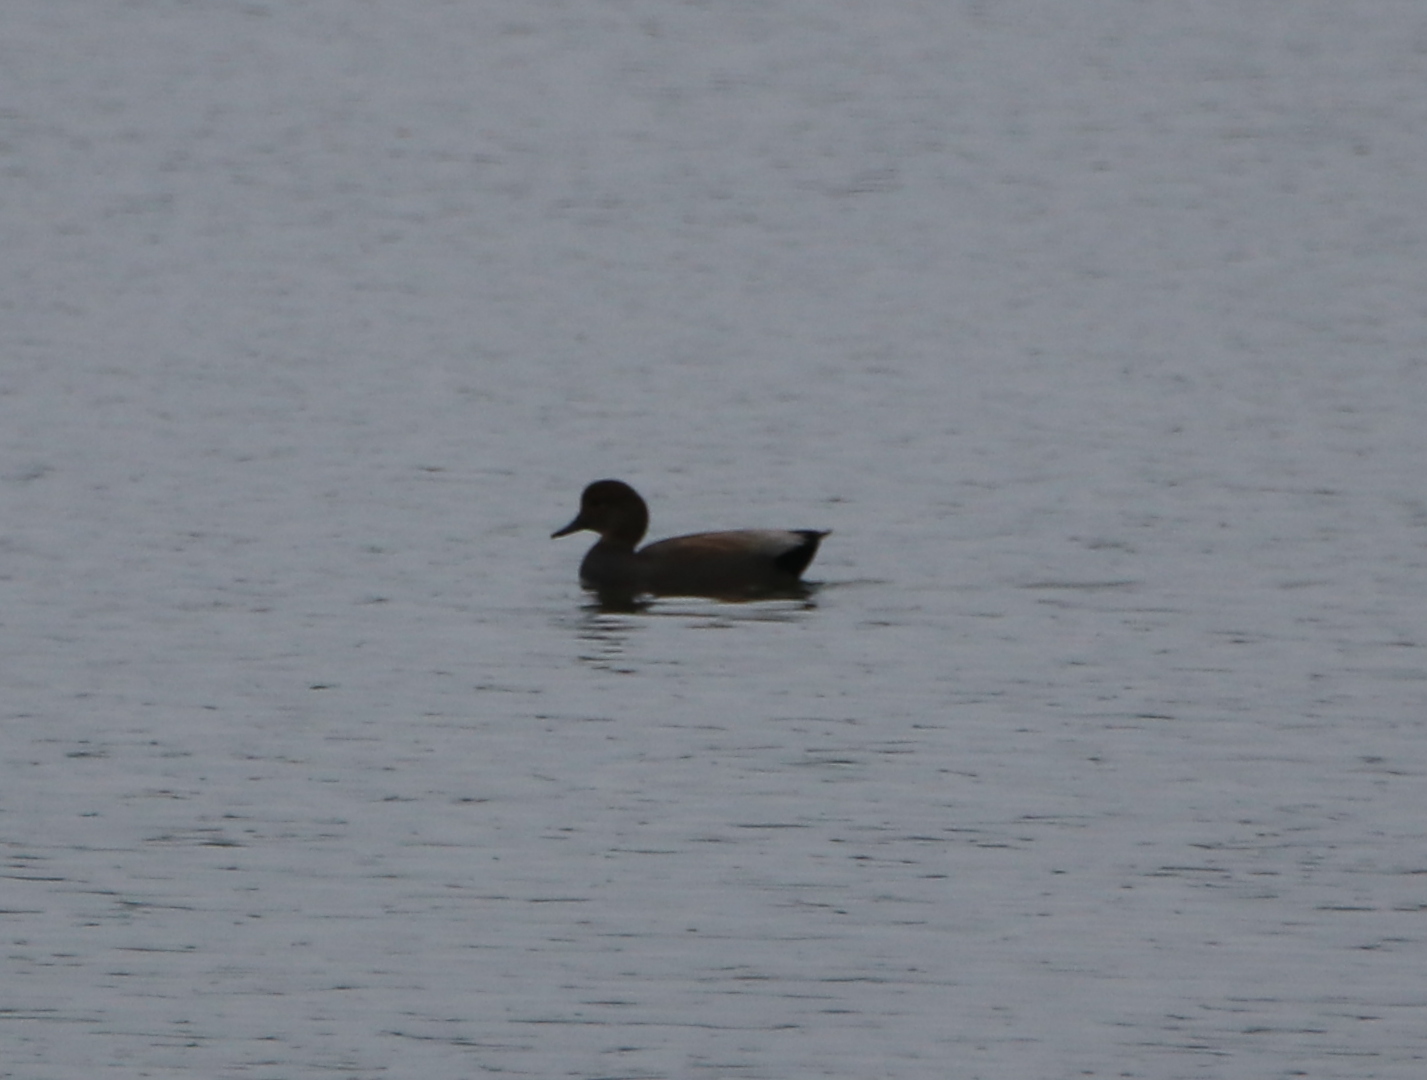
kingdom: Animalia
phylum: Chordata
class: Aves
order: Anseriformes
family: Anatidae
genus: Mareca
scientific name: Mareca strepera
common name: Gadwall
